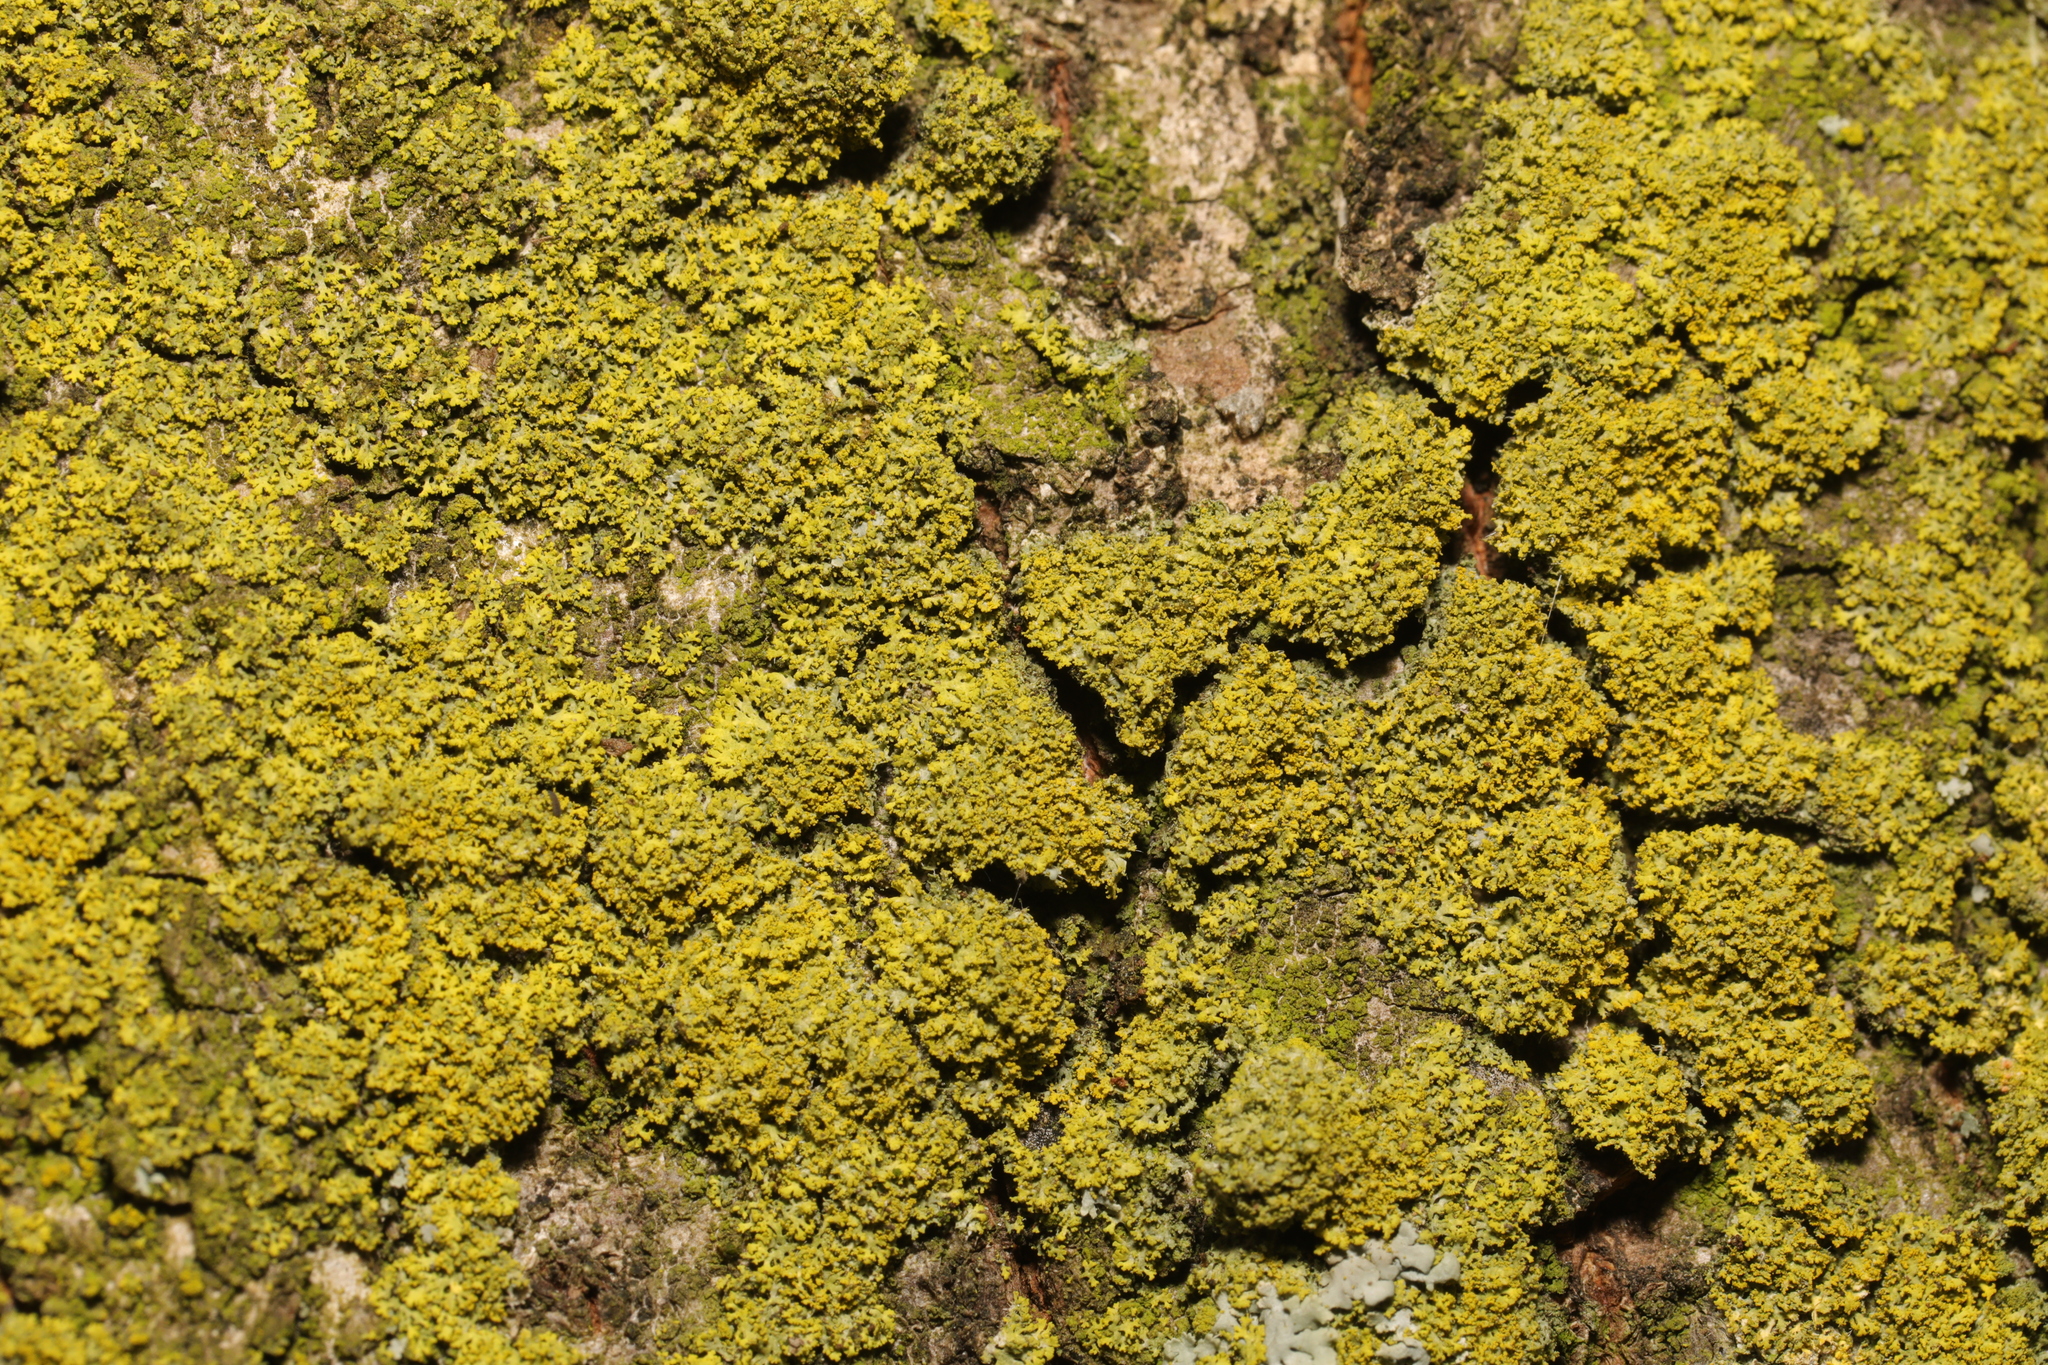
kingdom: Fungi
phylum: Ascomycota
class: Candelariomycetes
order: Candelariales
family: Candelariaceae
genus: Candelaria
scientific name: Candelaria concolor
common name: Candleflame lichen
